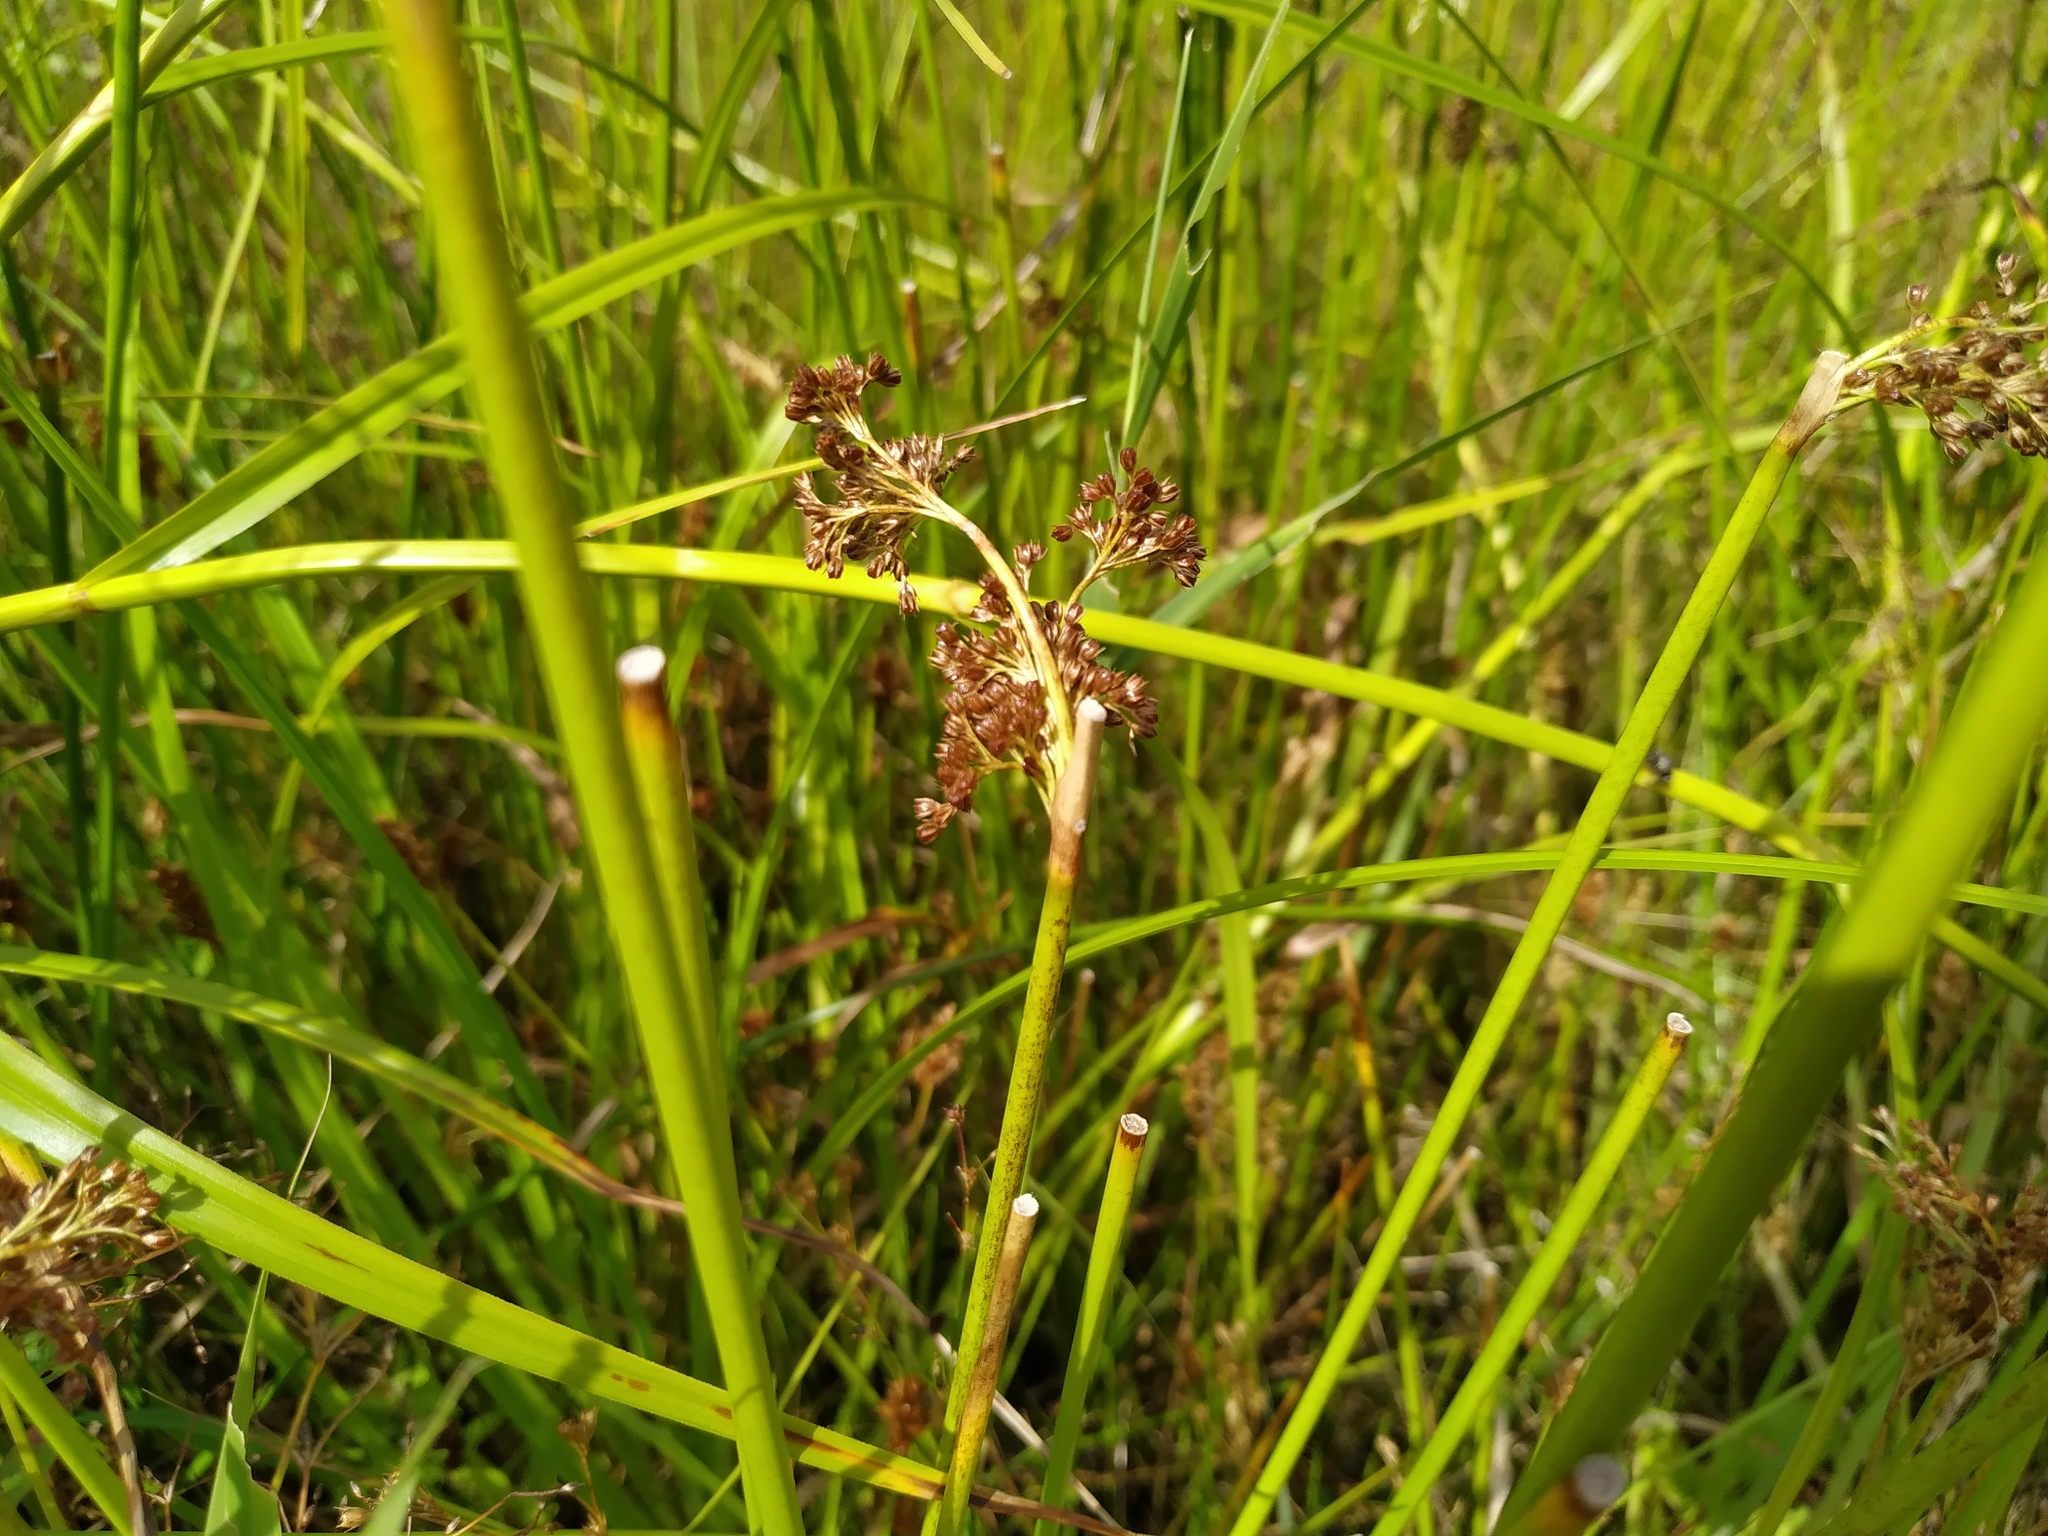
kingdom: Plantae
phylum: Tracheophyta
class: Liliopsida
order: Poales
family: Juncaceae
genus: Juncus
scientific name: Juncus effusus
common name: Soft rush
